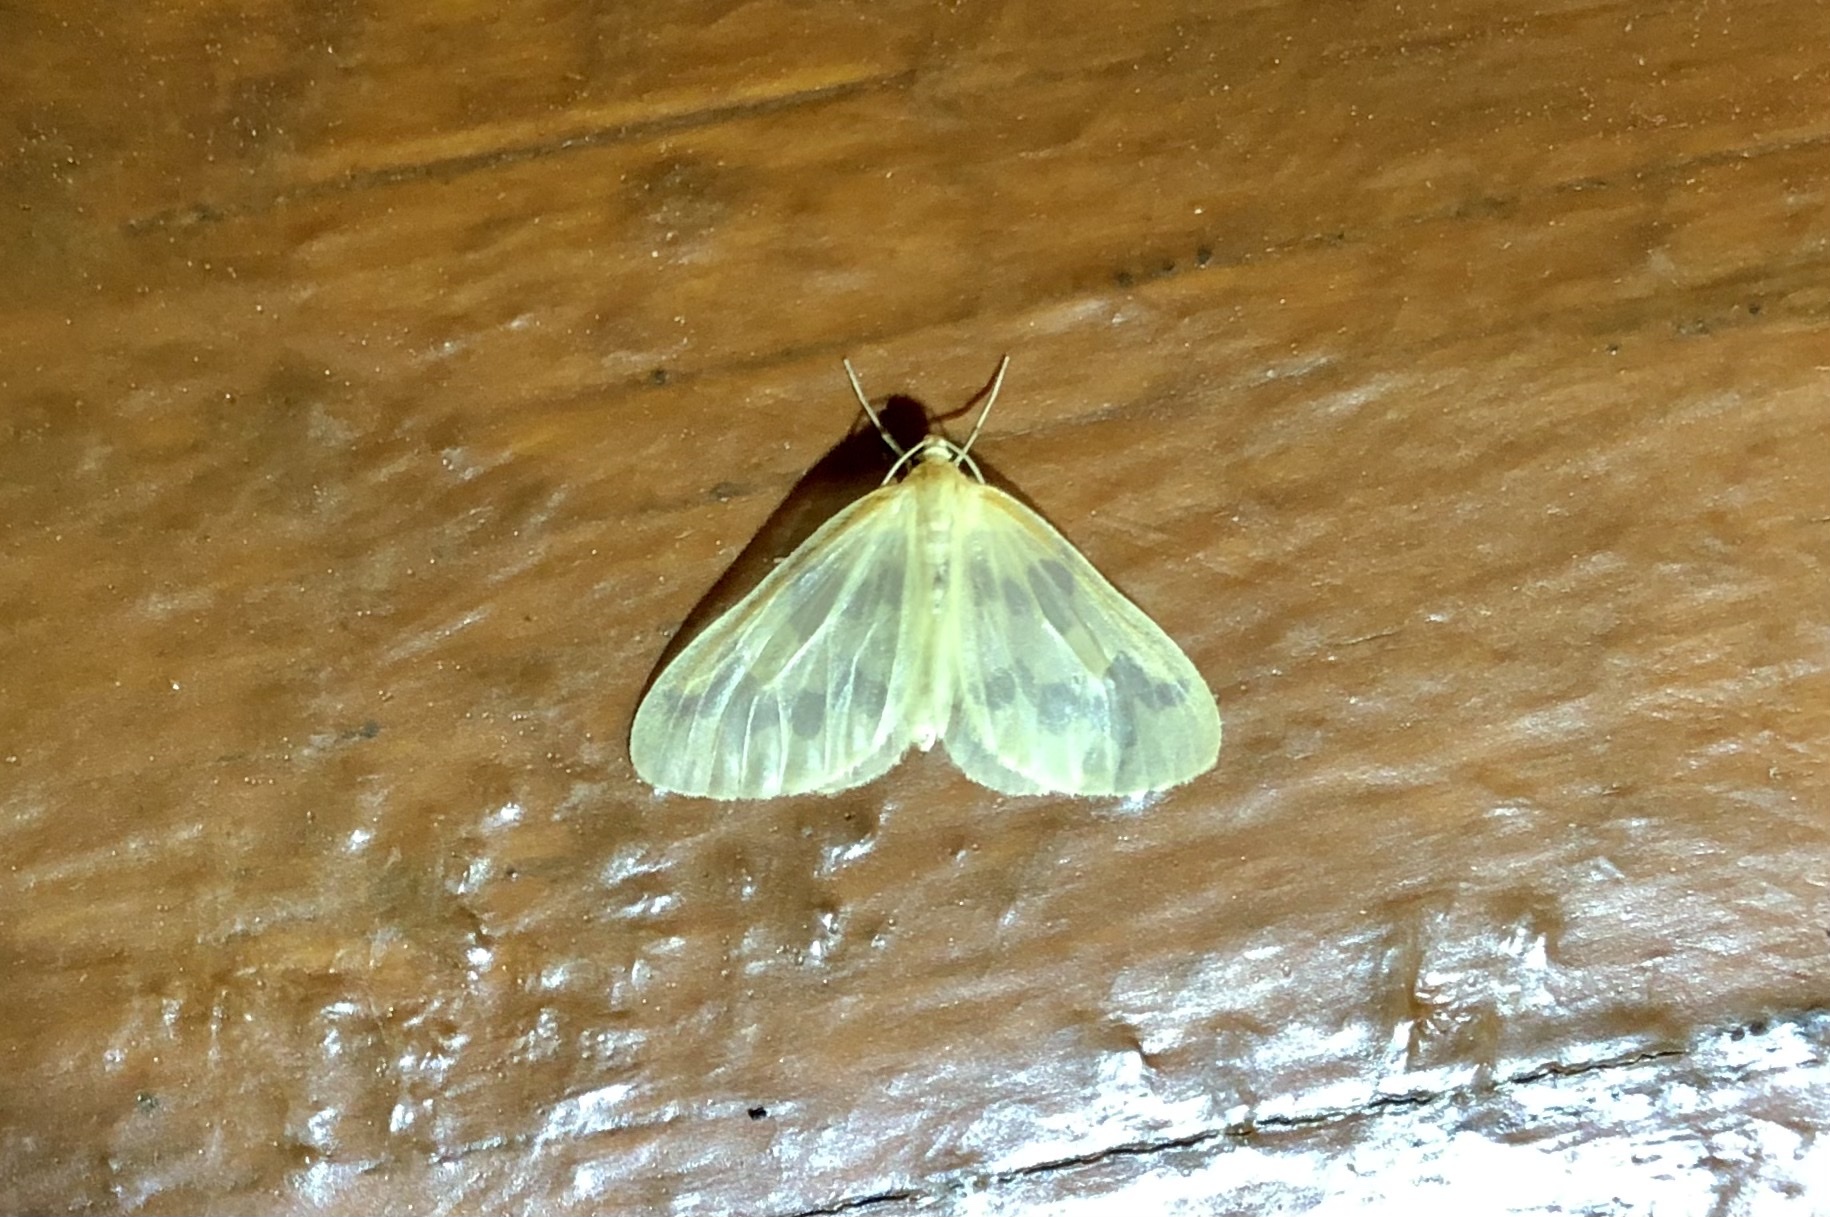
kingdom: Animalia
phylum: Arthropoda
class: Insecta
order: Lepidoptera
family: Geometridae
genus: Eubaphe
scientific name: Eubaphe mendica
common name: Beggar
